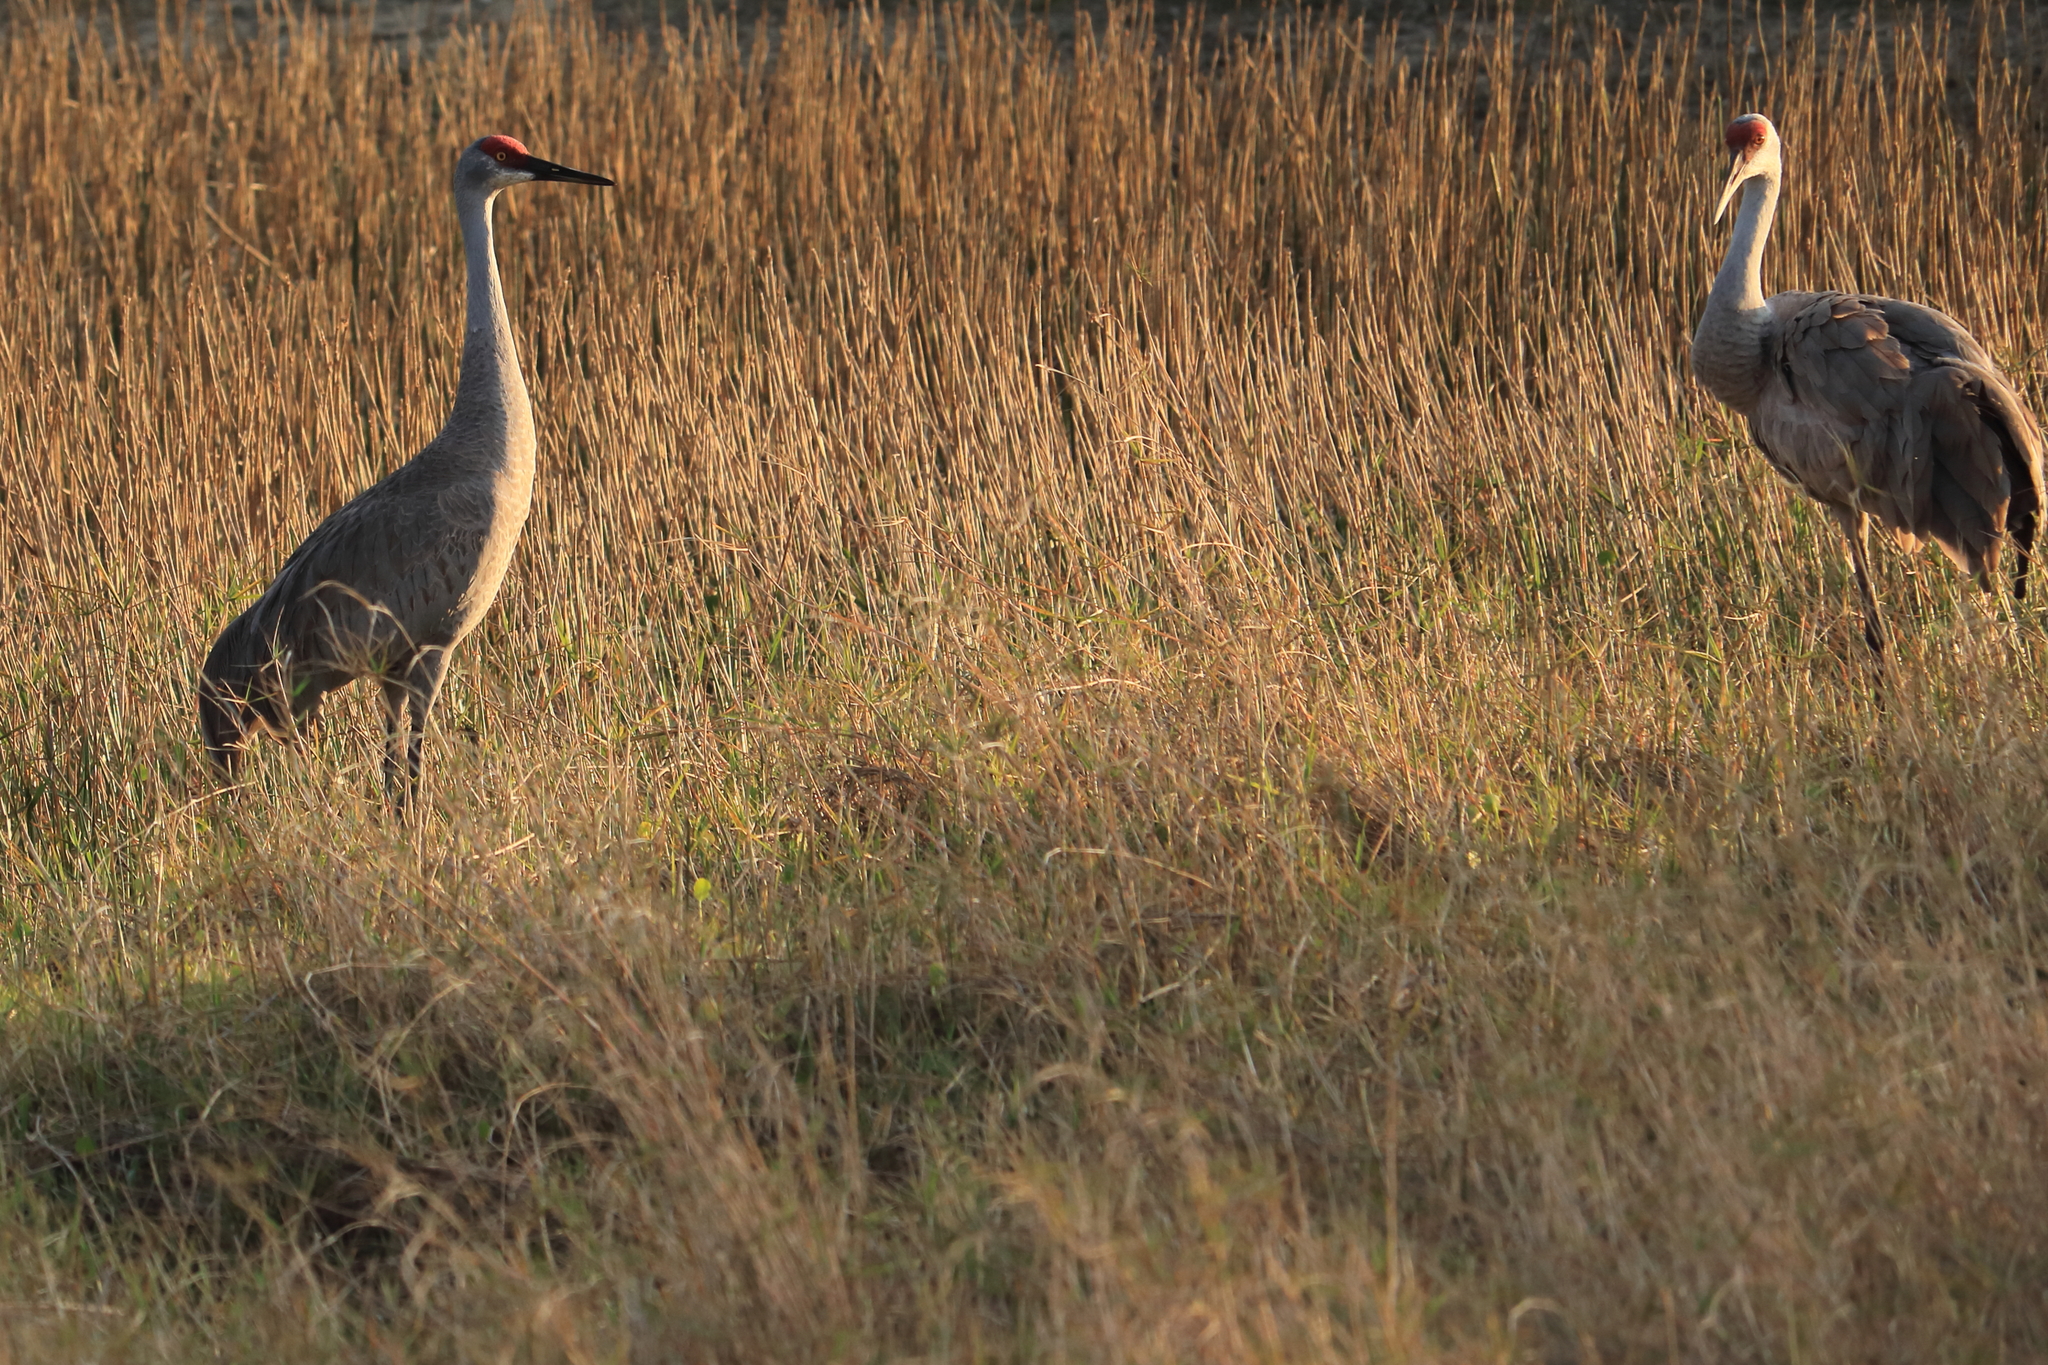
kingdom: Animalia
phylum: Chordata
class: Aves
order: Gruiformes
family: Gruidae
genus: Grus
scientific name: Grus canadensis
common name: Sandhill crane
